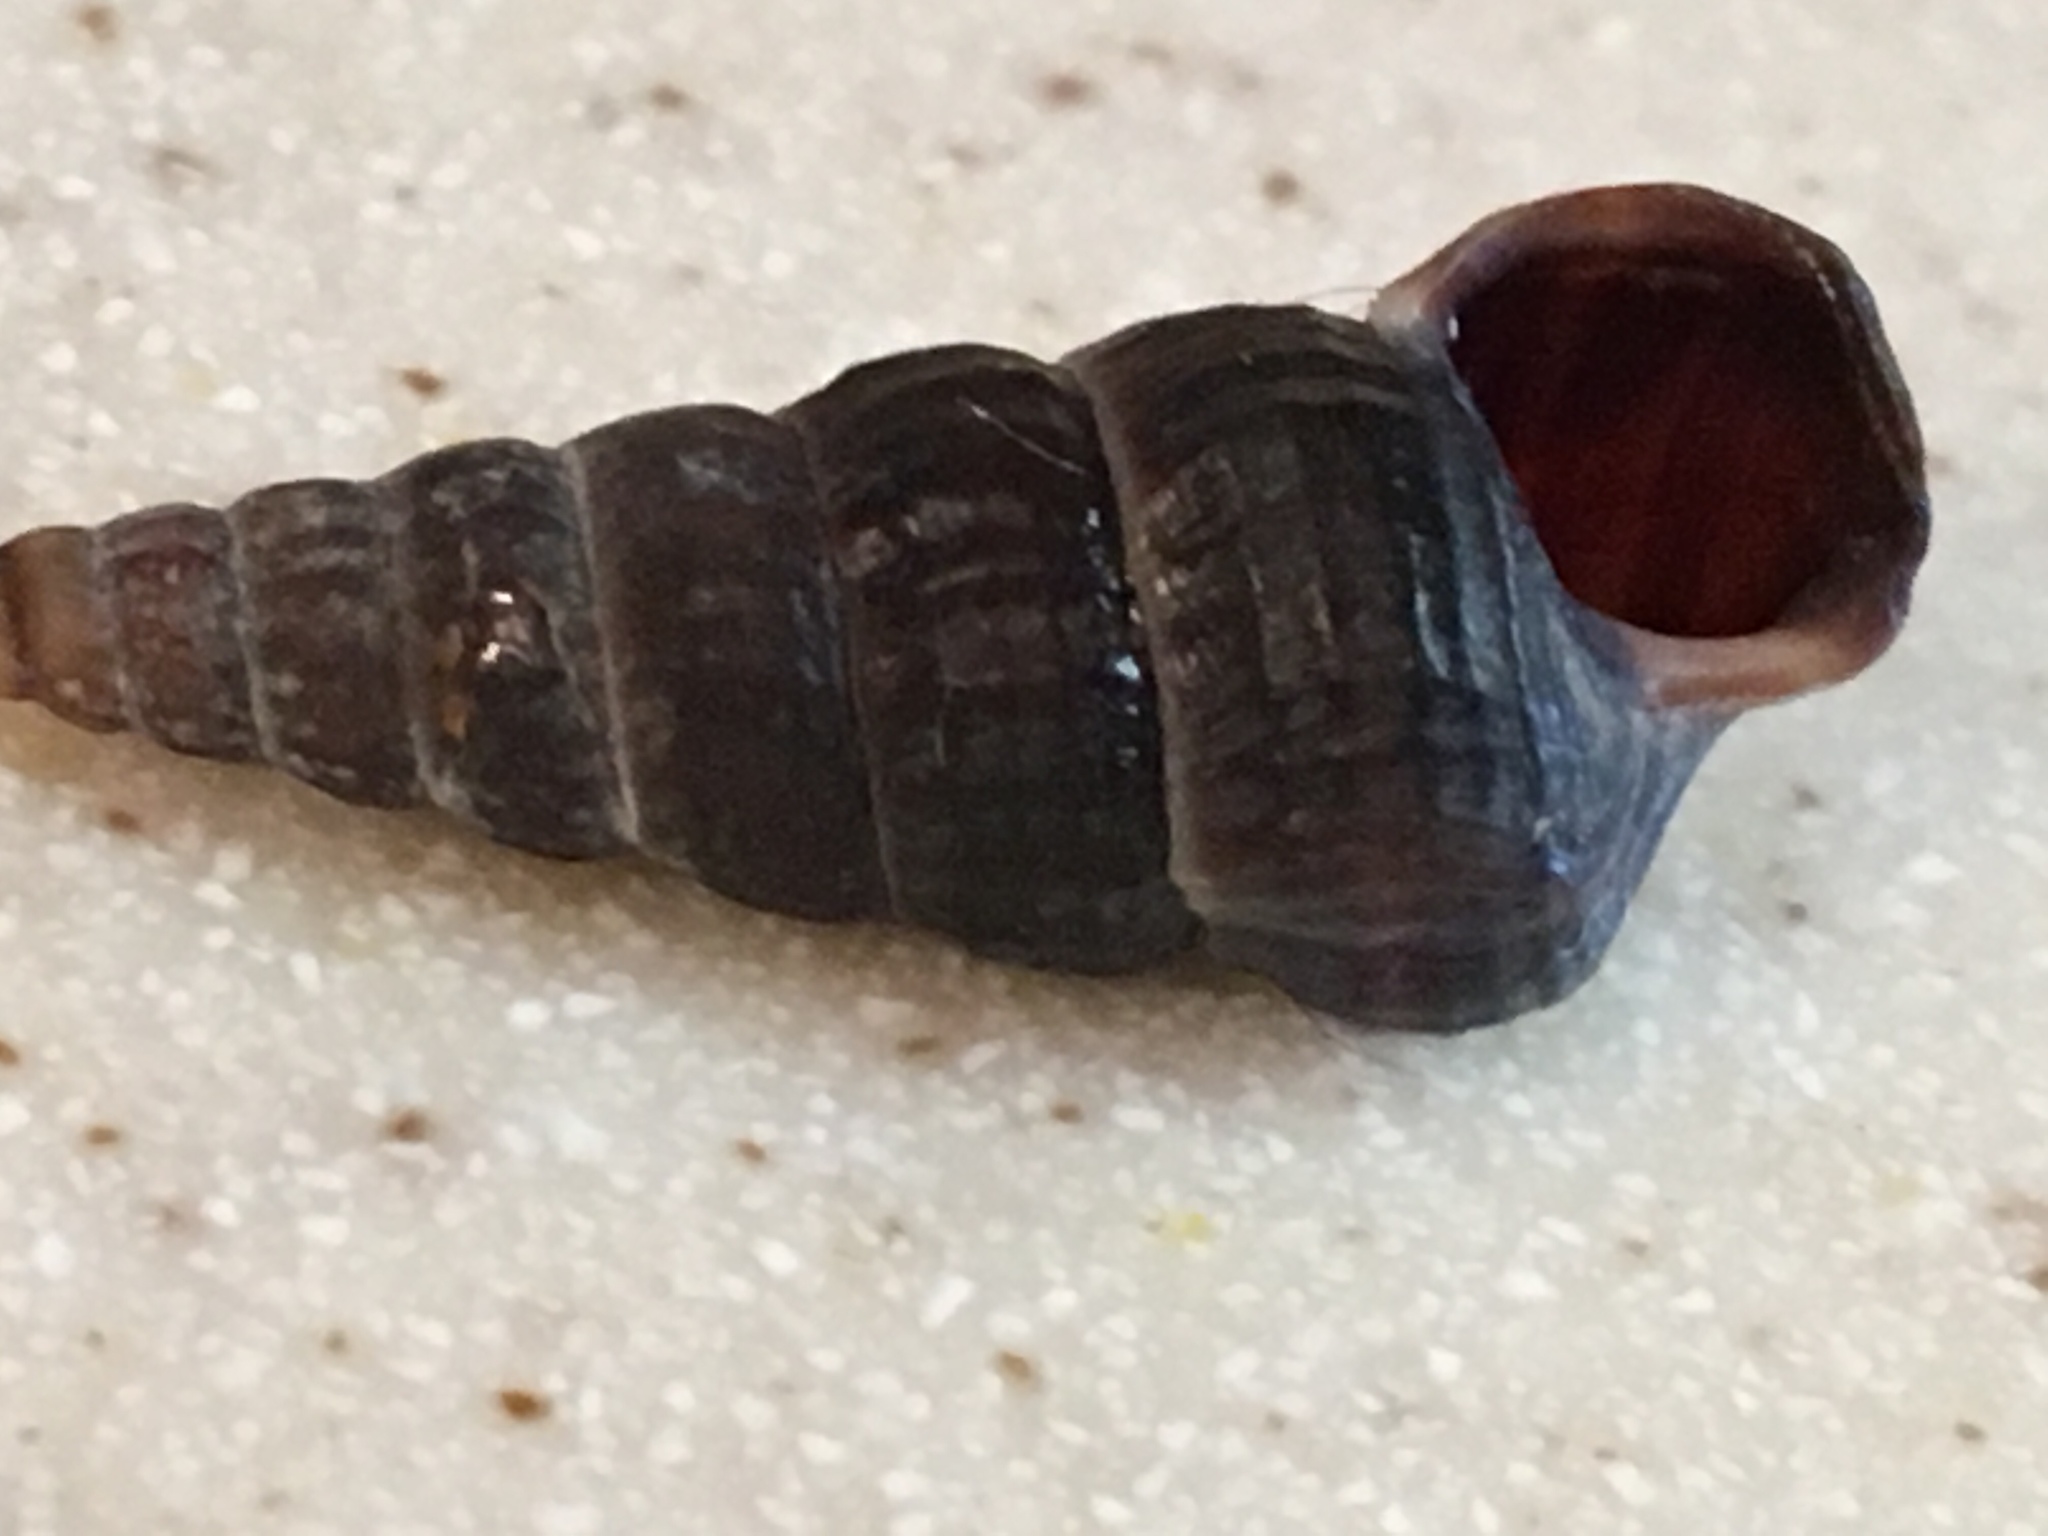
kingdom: Animalia
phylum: Mollusca
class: Gastropoda
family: Potamididae
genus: Cerithideopsis
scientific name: Cerithideopsis californica
